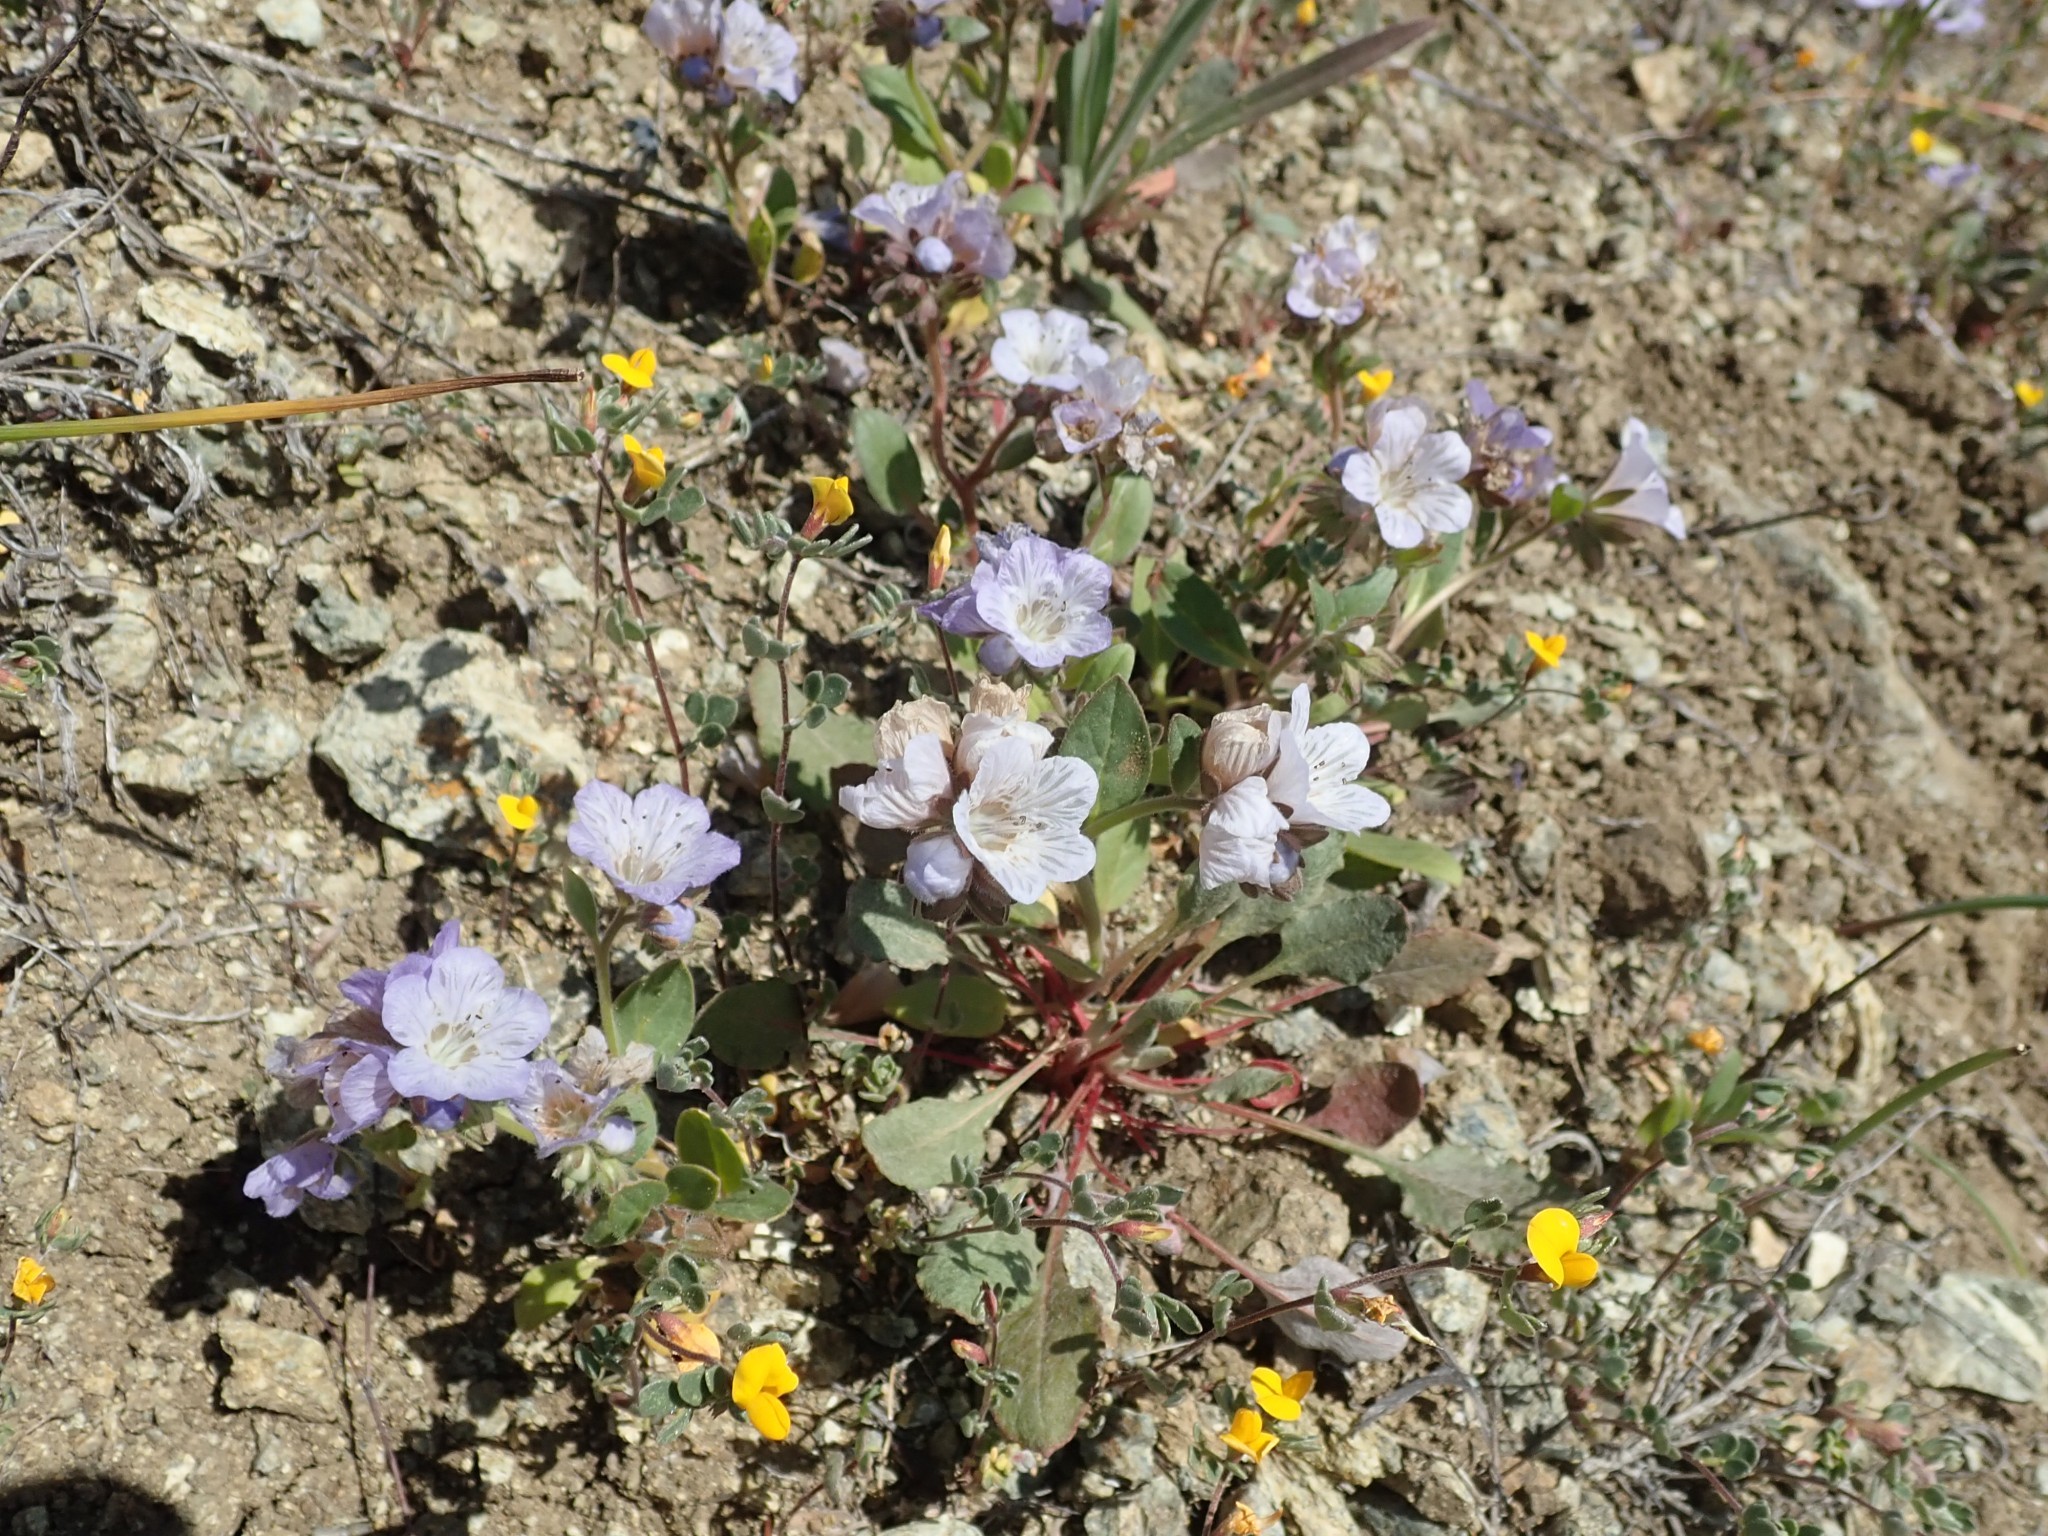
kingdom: Plantae
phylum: Tracheophyta
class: Magnoliopsida
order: Boraginales
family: Hydrophyllaceae
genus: Phacelia
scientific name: Phacelia divaricata
